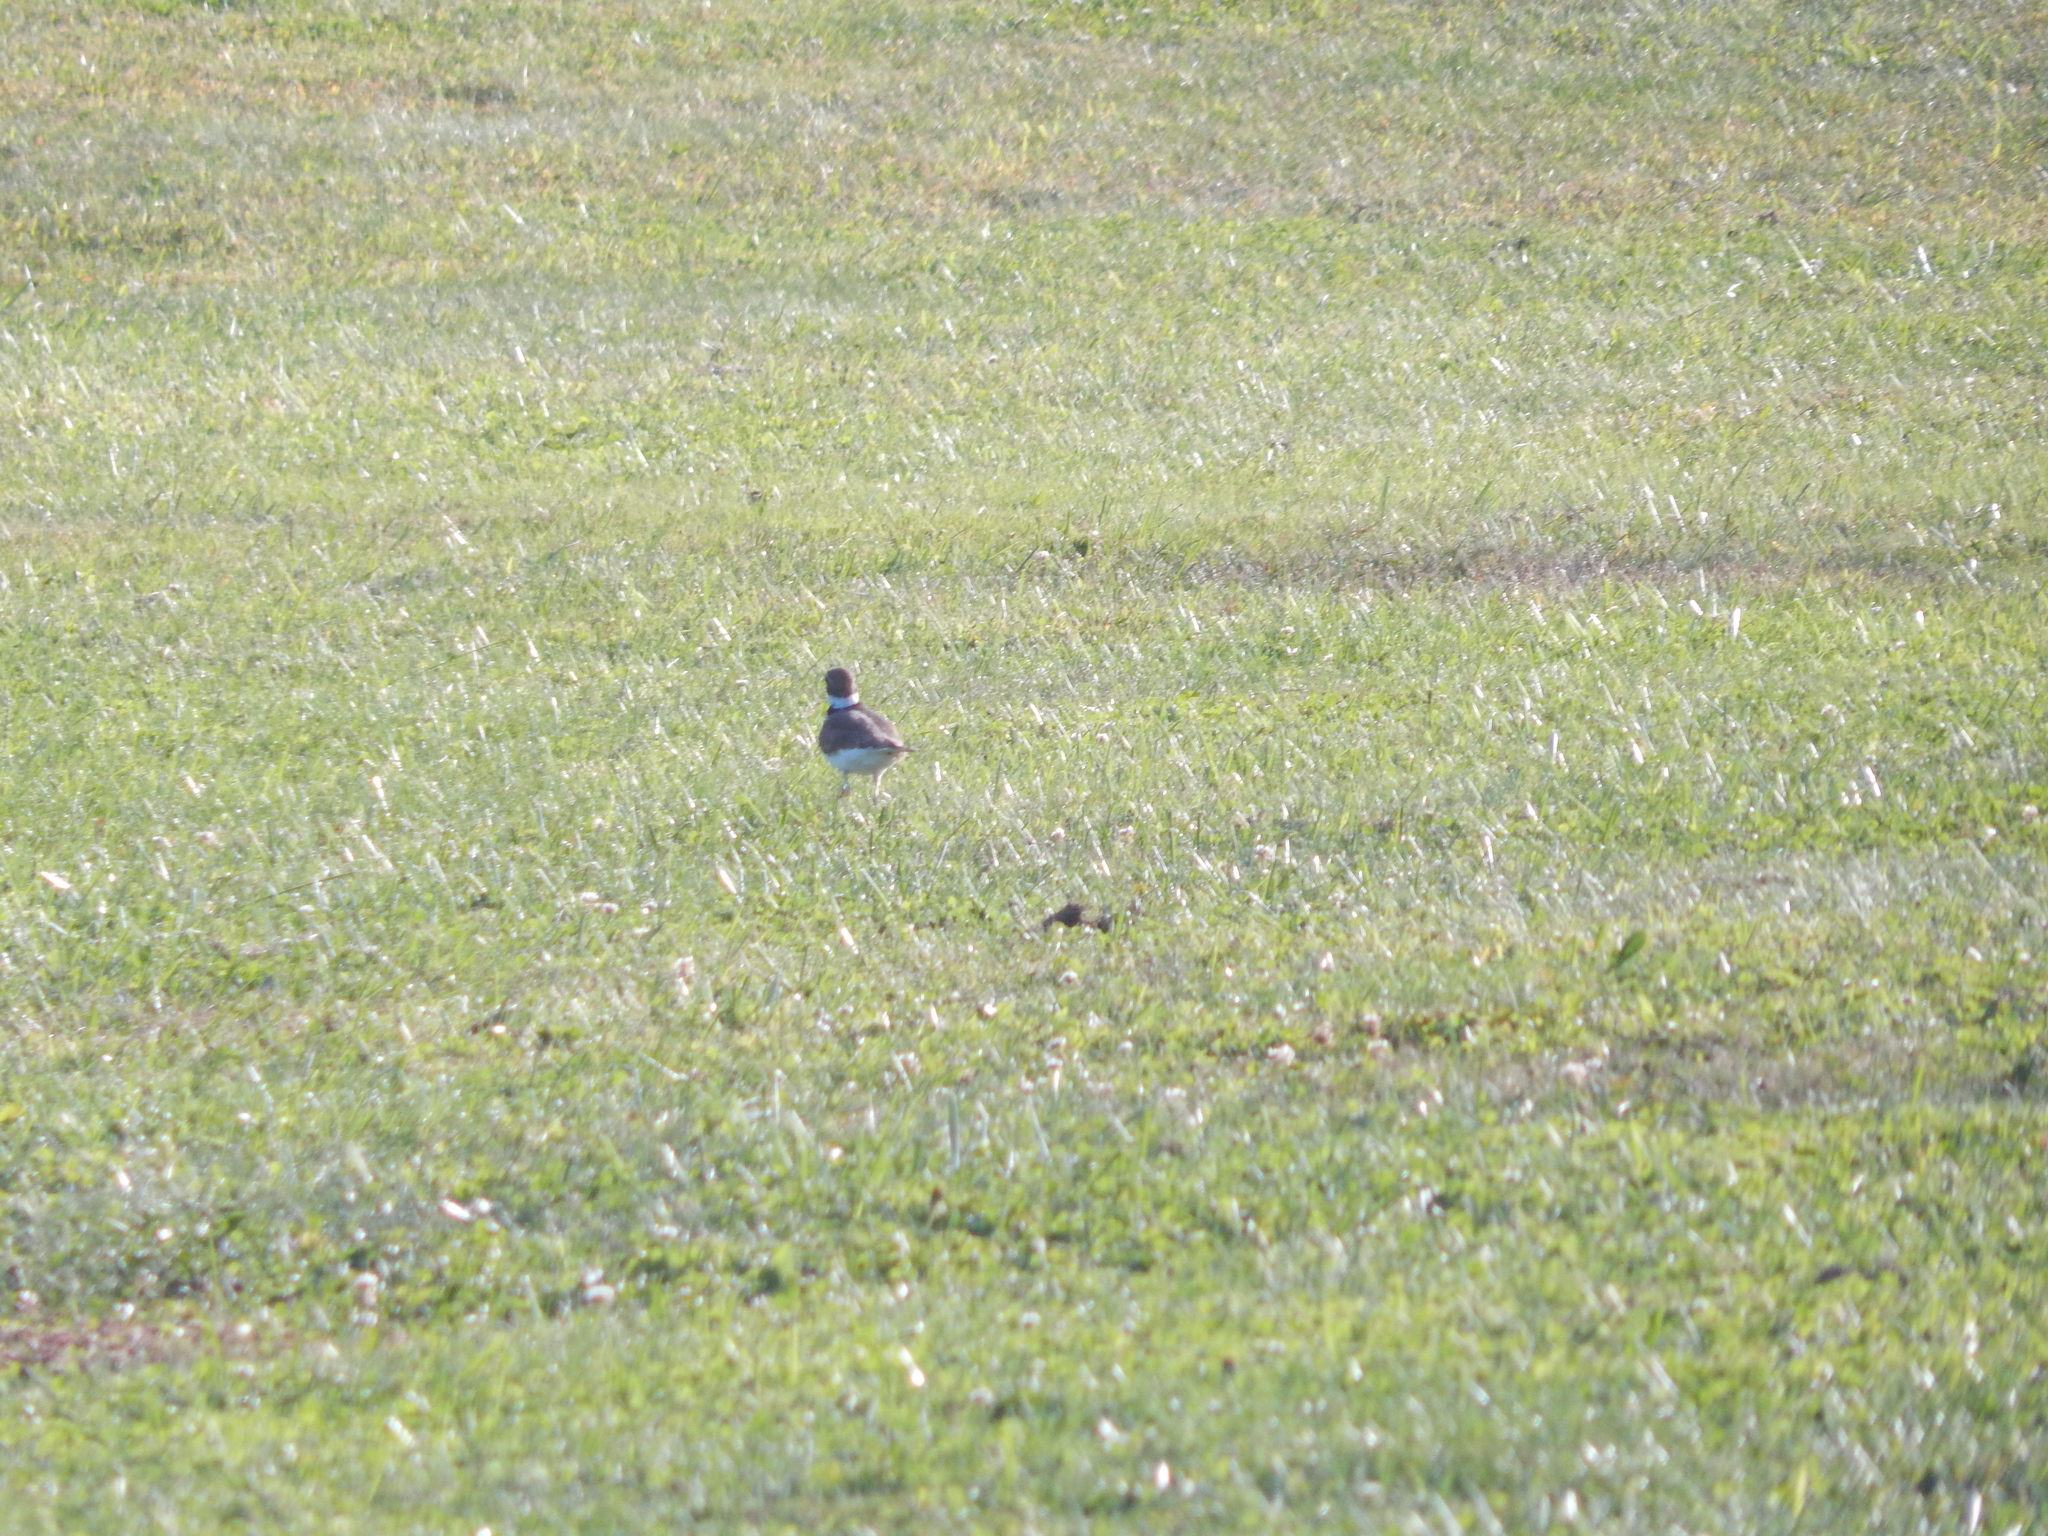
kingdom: Animalia
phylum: Chordata
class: Aves
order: Charadriiformes
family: Charadriidae
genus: Charadrius
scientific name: Charadrius vociferus
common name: Killdeer
